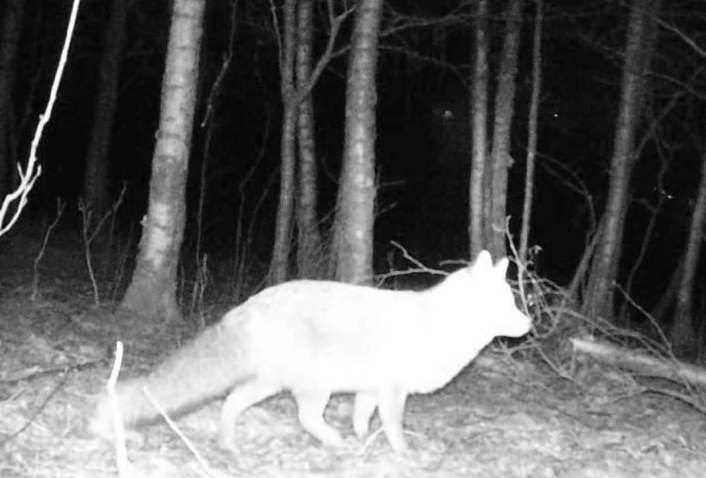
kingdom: Animalia
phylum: Chordata
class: Mammalia
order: Carnivora
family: Canidae
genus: Vulpes
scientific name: Vulpes vulpes
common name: Red fox
